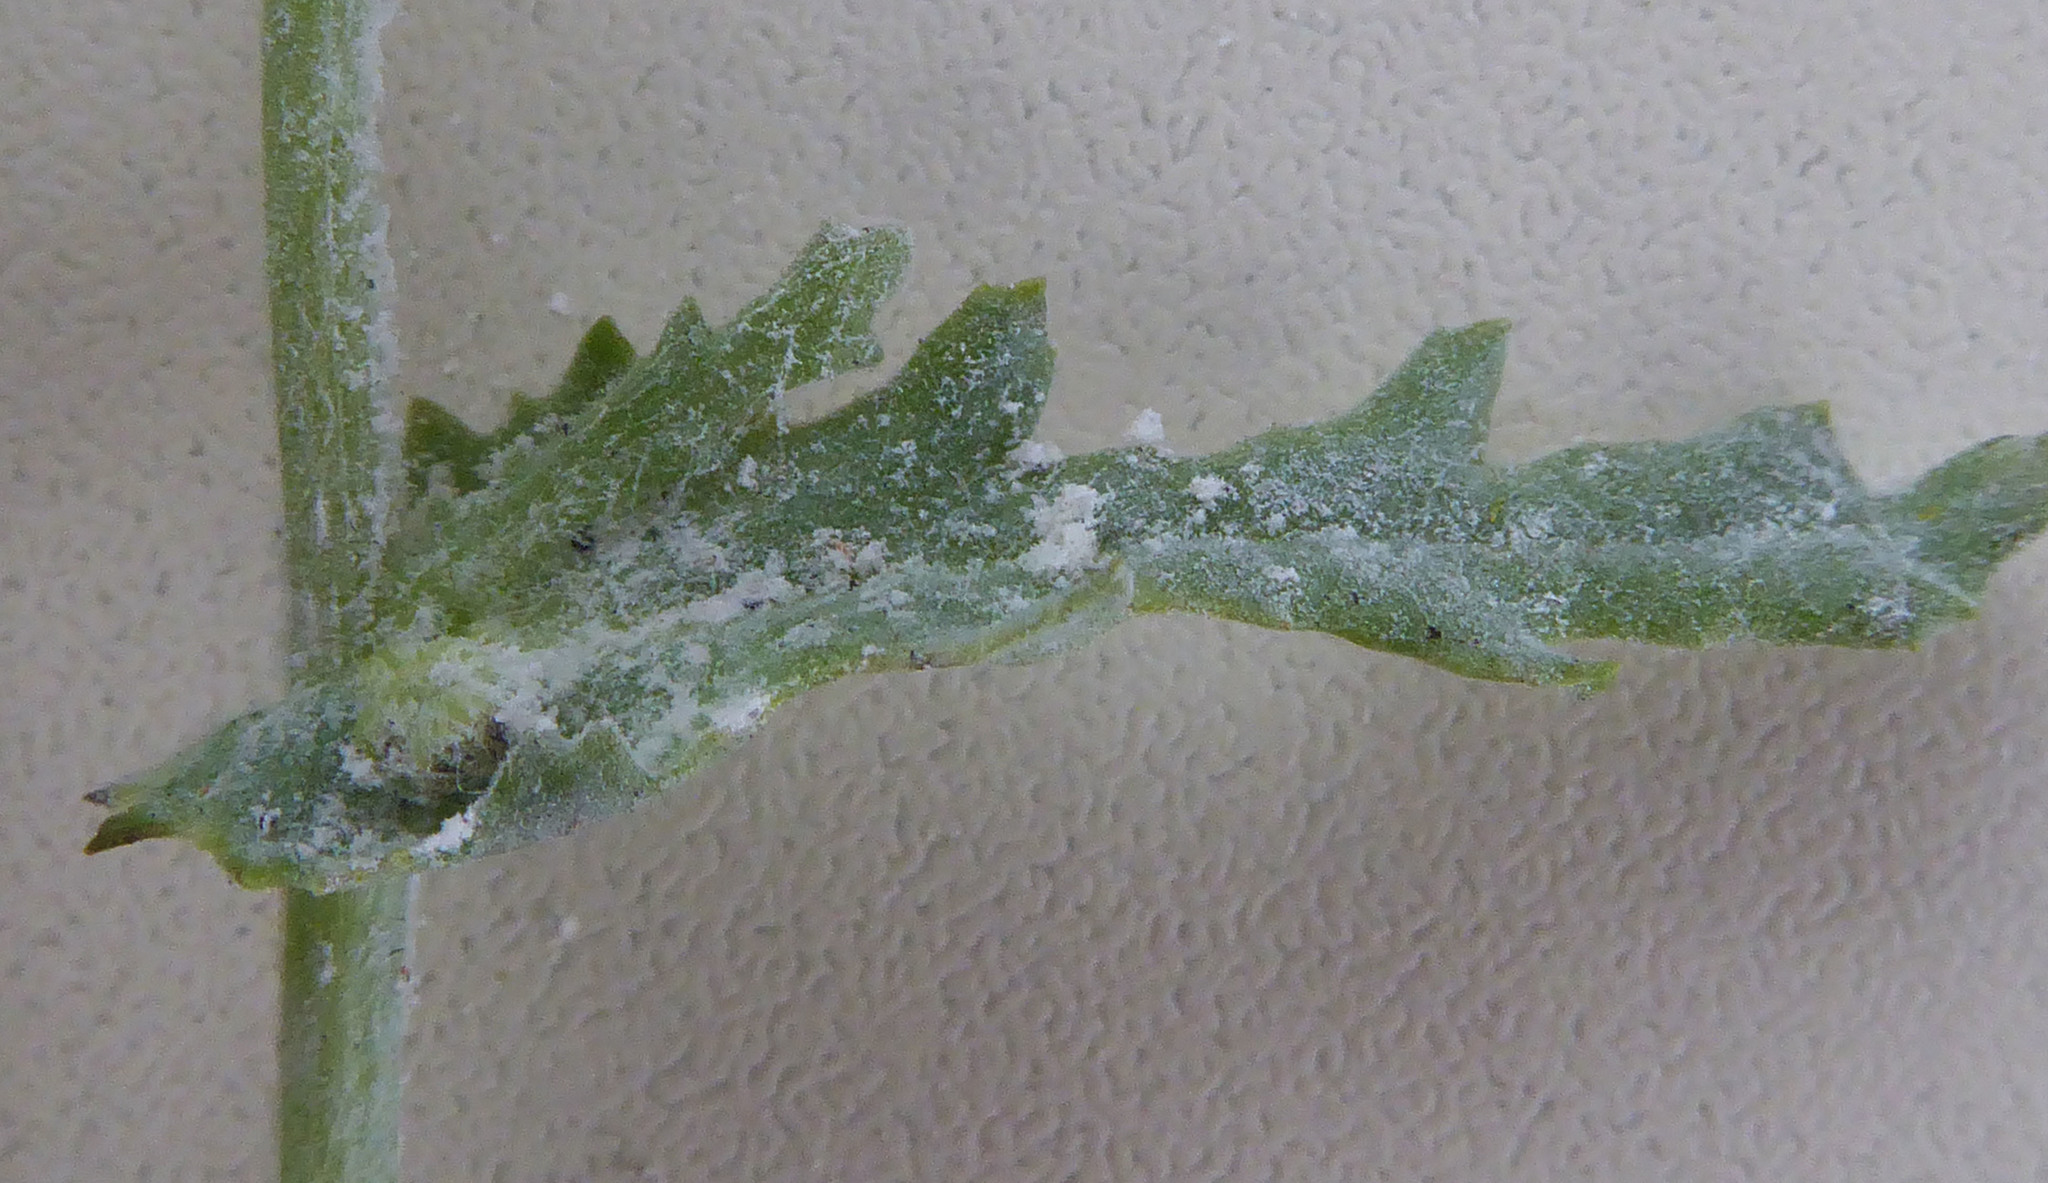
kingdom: Fungi
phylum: Ascomycota
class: Leotiomycetes
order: Helotiales
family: Erysiphaceae
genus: Neoerysiphe
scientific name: Neoerysiphe kerribeeensis
